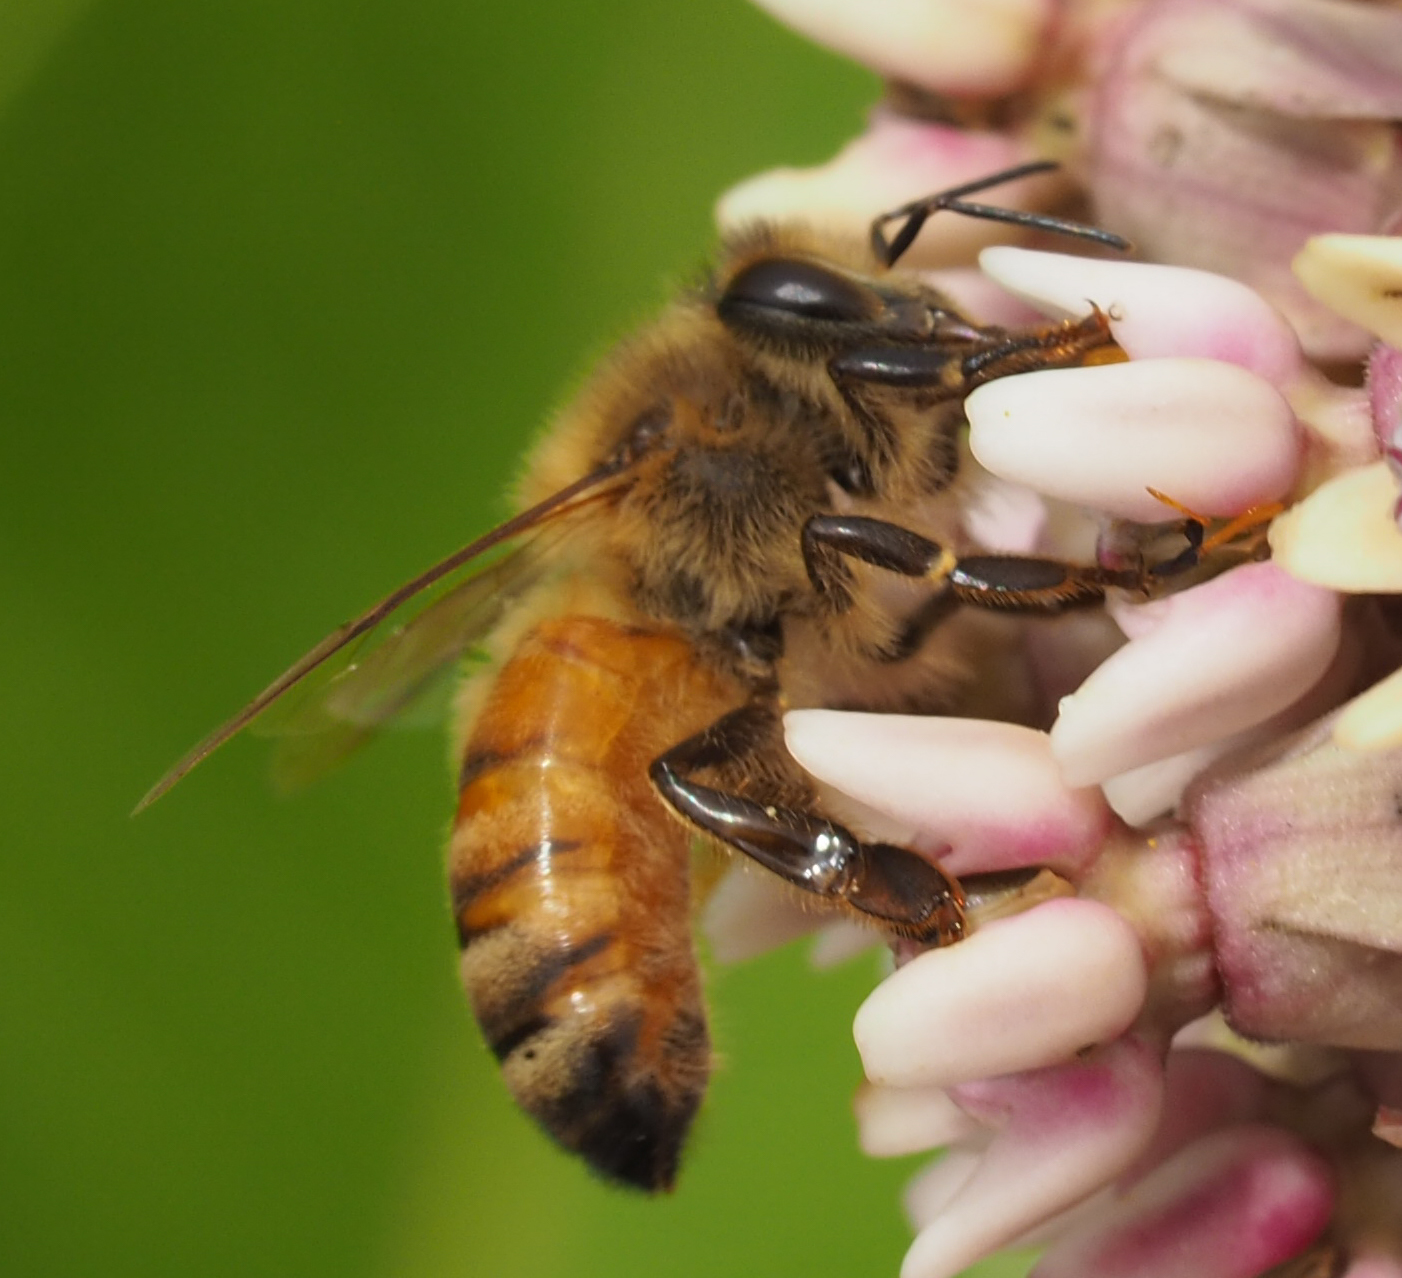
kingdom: Animalia
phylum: Arthropoda
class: Insecta
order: Hymenoptera
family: Apidae
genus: Apis
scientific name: Apis mellifera
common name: Honey bee
